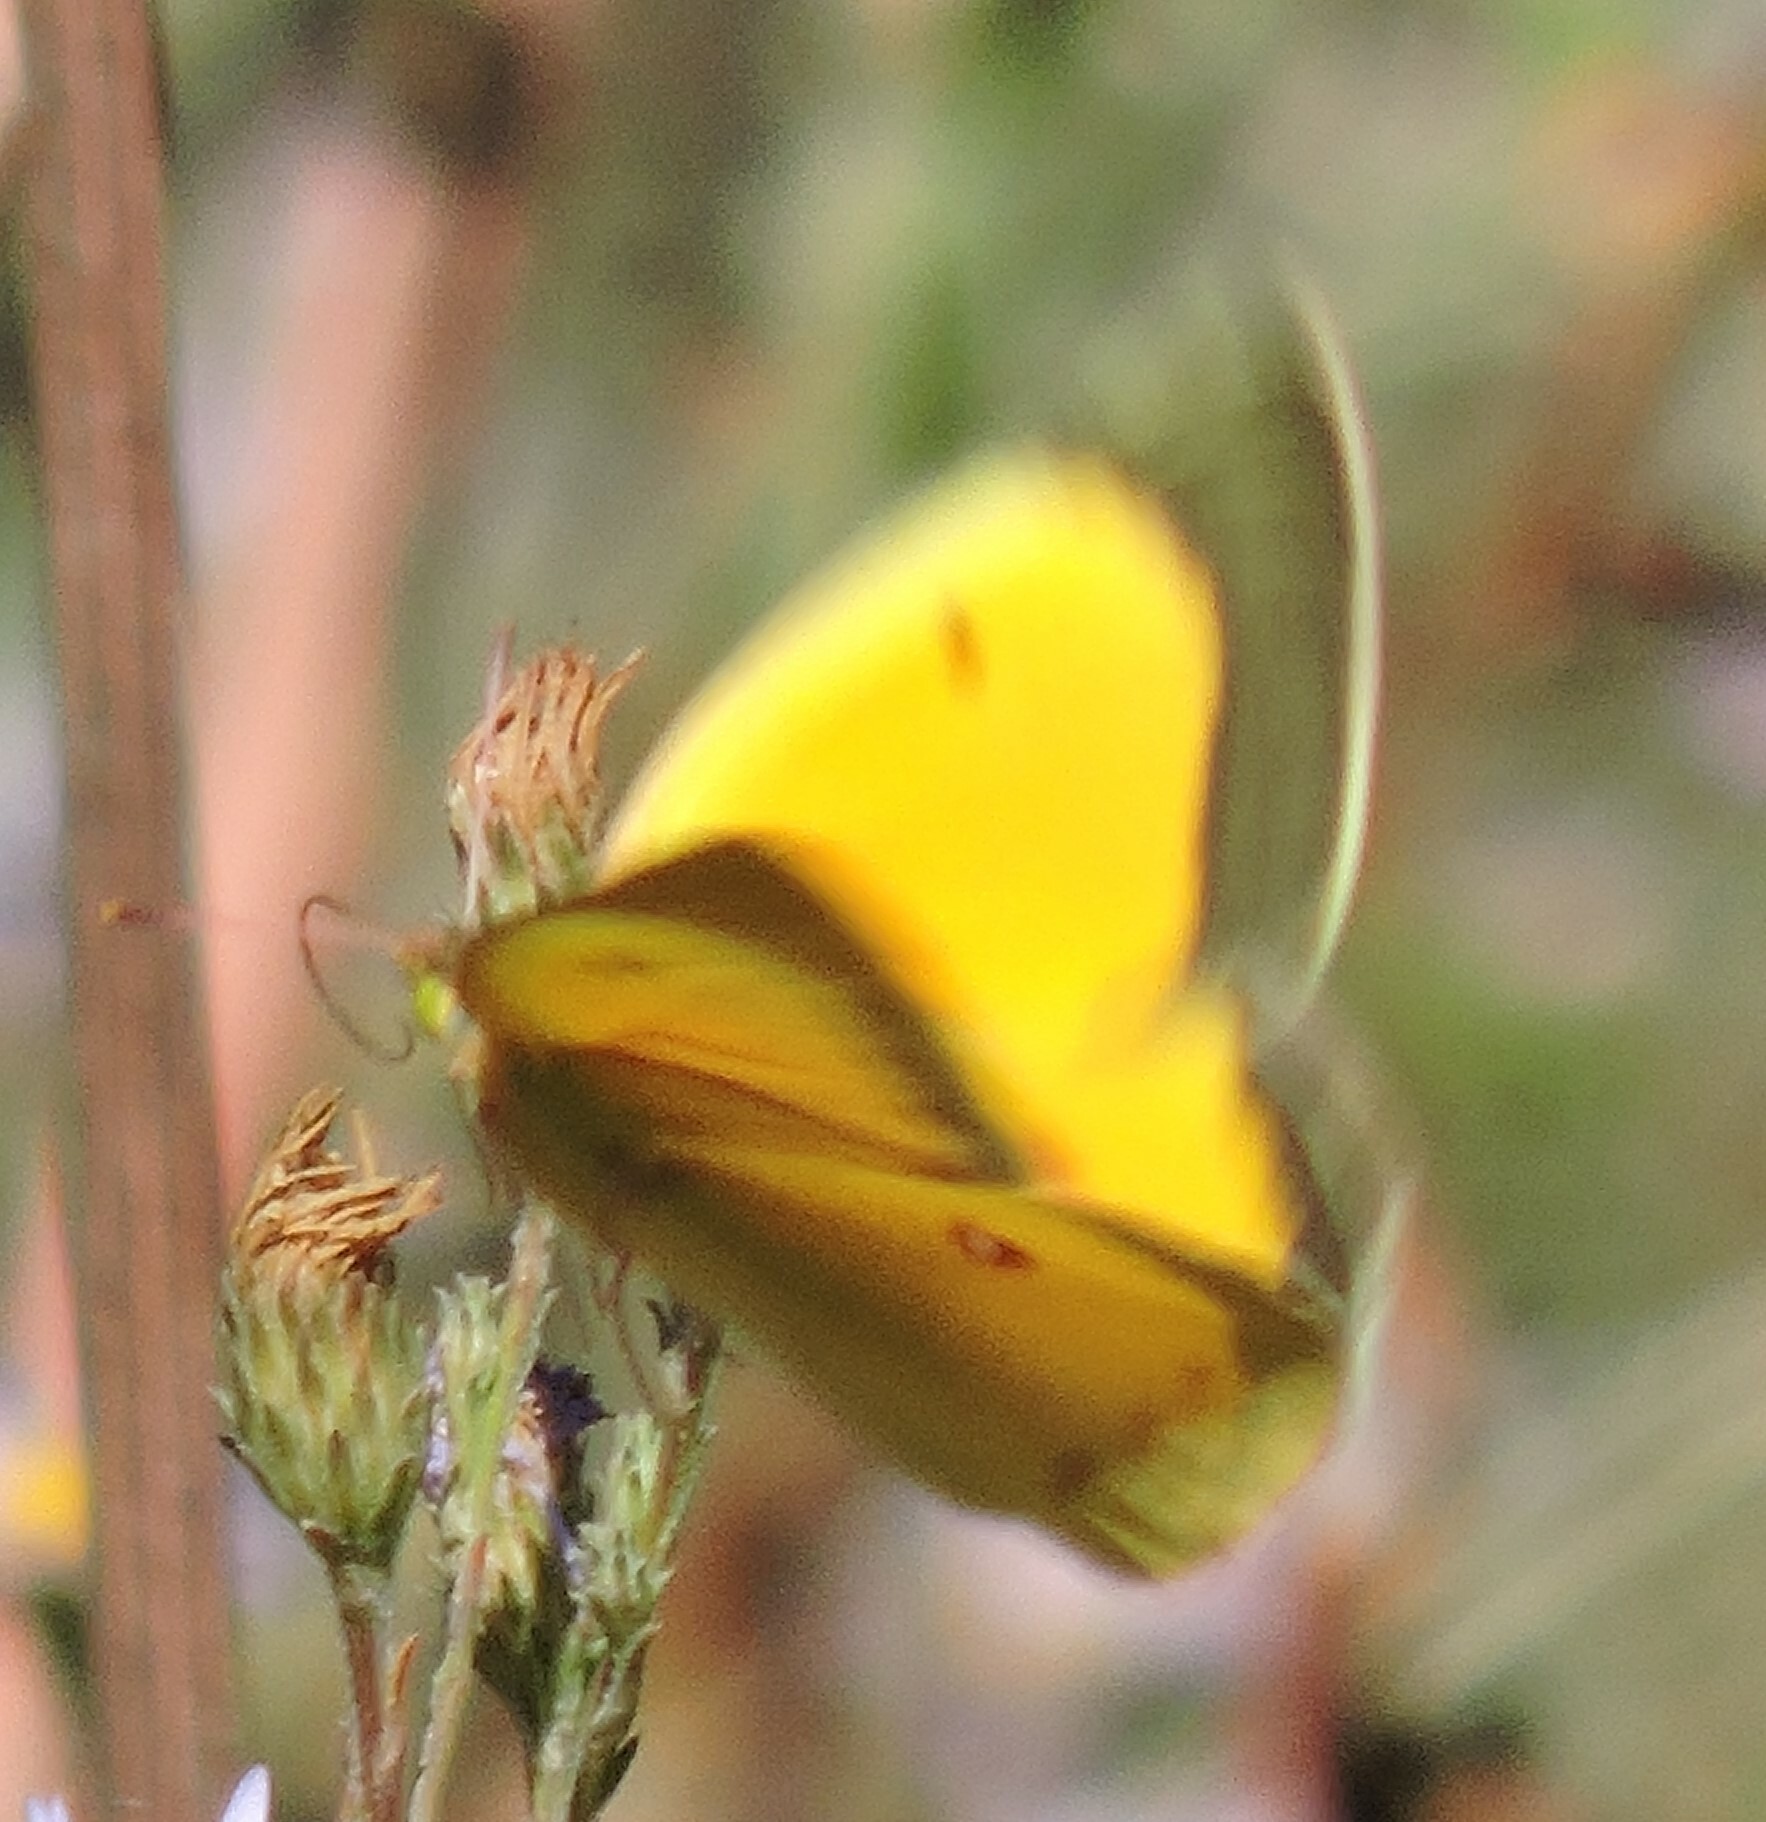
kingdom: Animalia
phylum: Arthropoda
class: Insecta
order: Lepidoptera
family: Pieridae
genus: Colias
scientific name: Colias eurytheme
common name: Alfalfa butterfly
